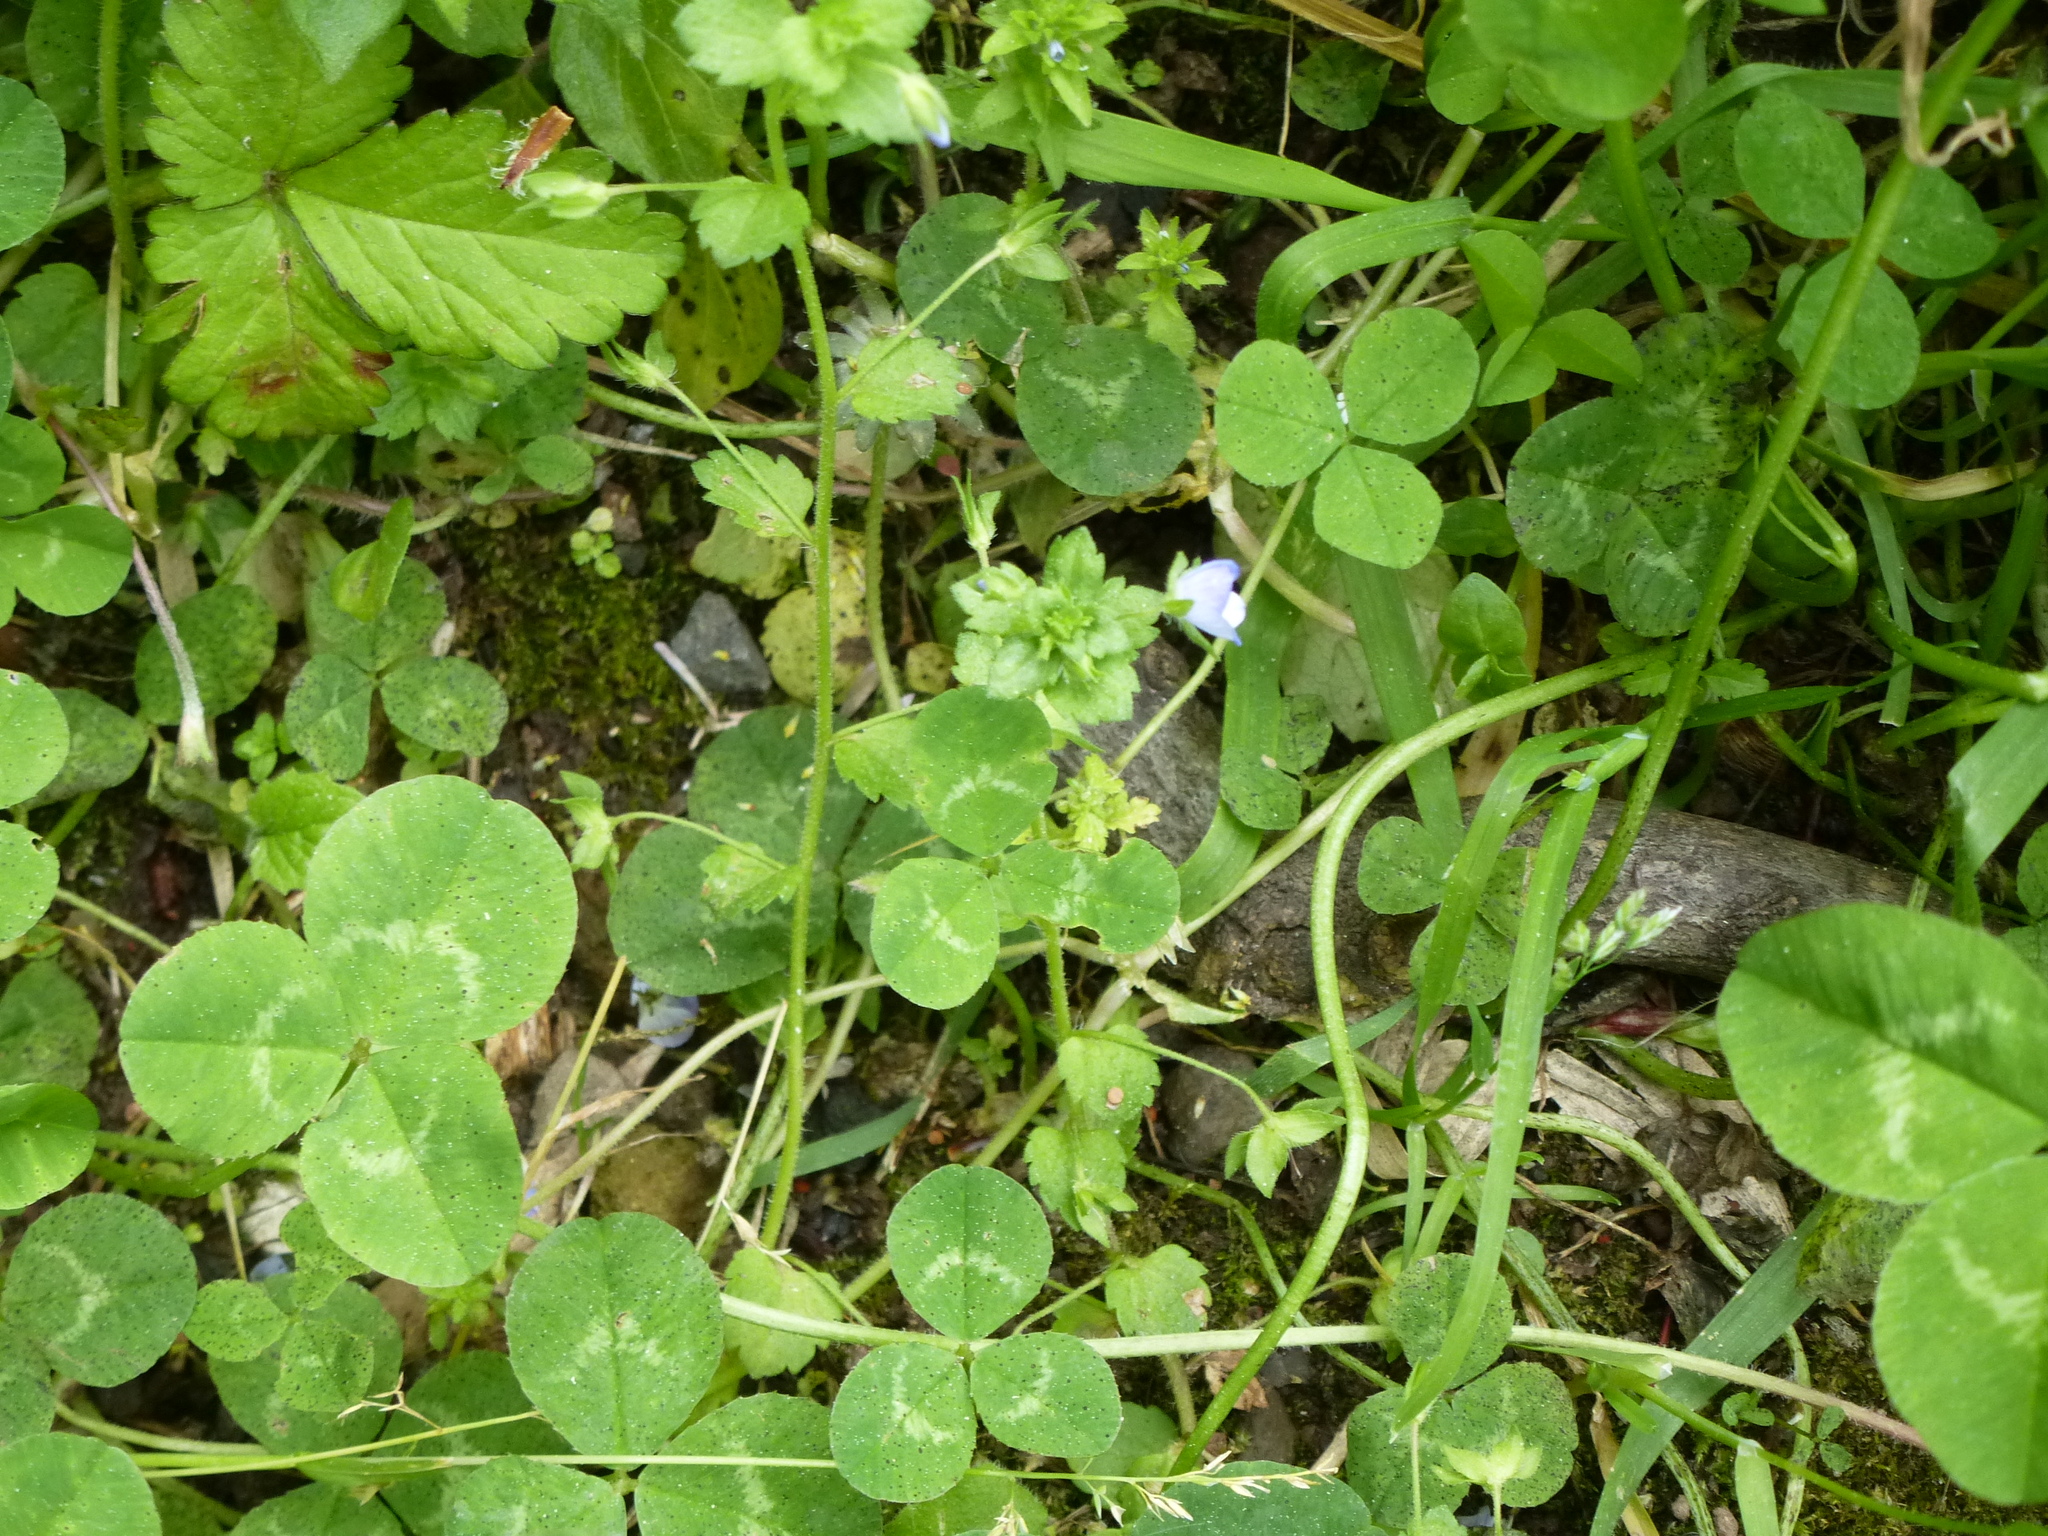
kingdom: Plantae
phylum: Tracheophyta
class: Magnoliopsida
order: Lamiales
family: Plantaginaceae
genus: Veronica
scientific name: Veronica persica
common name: Common field-speedwell
